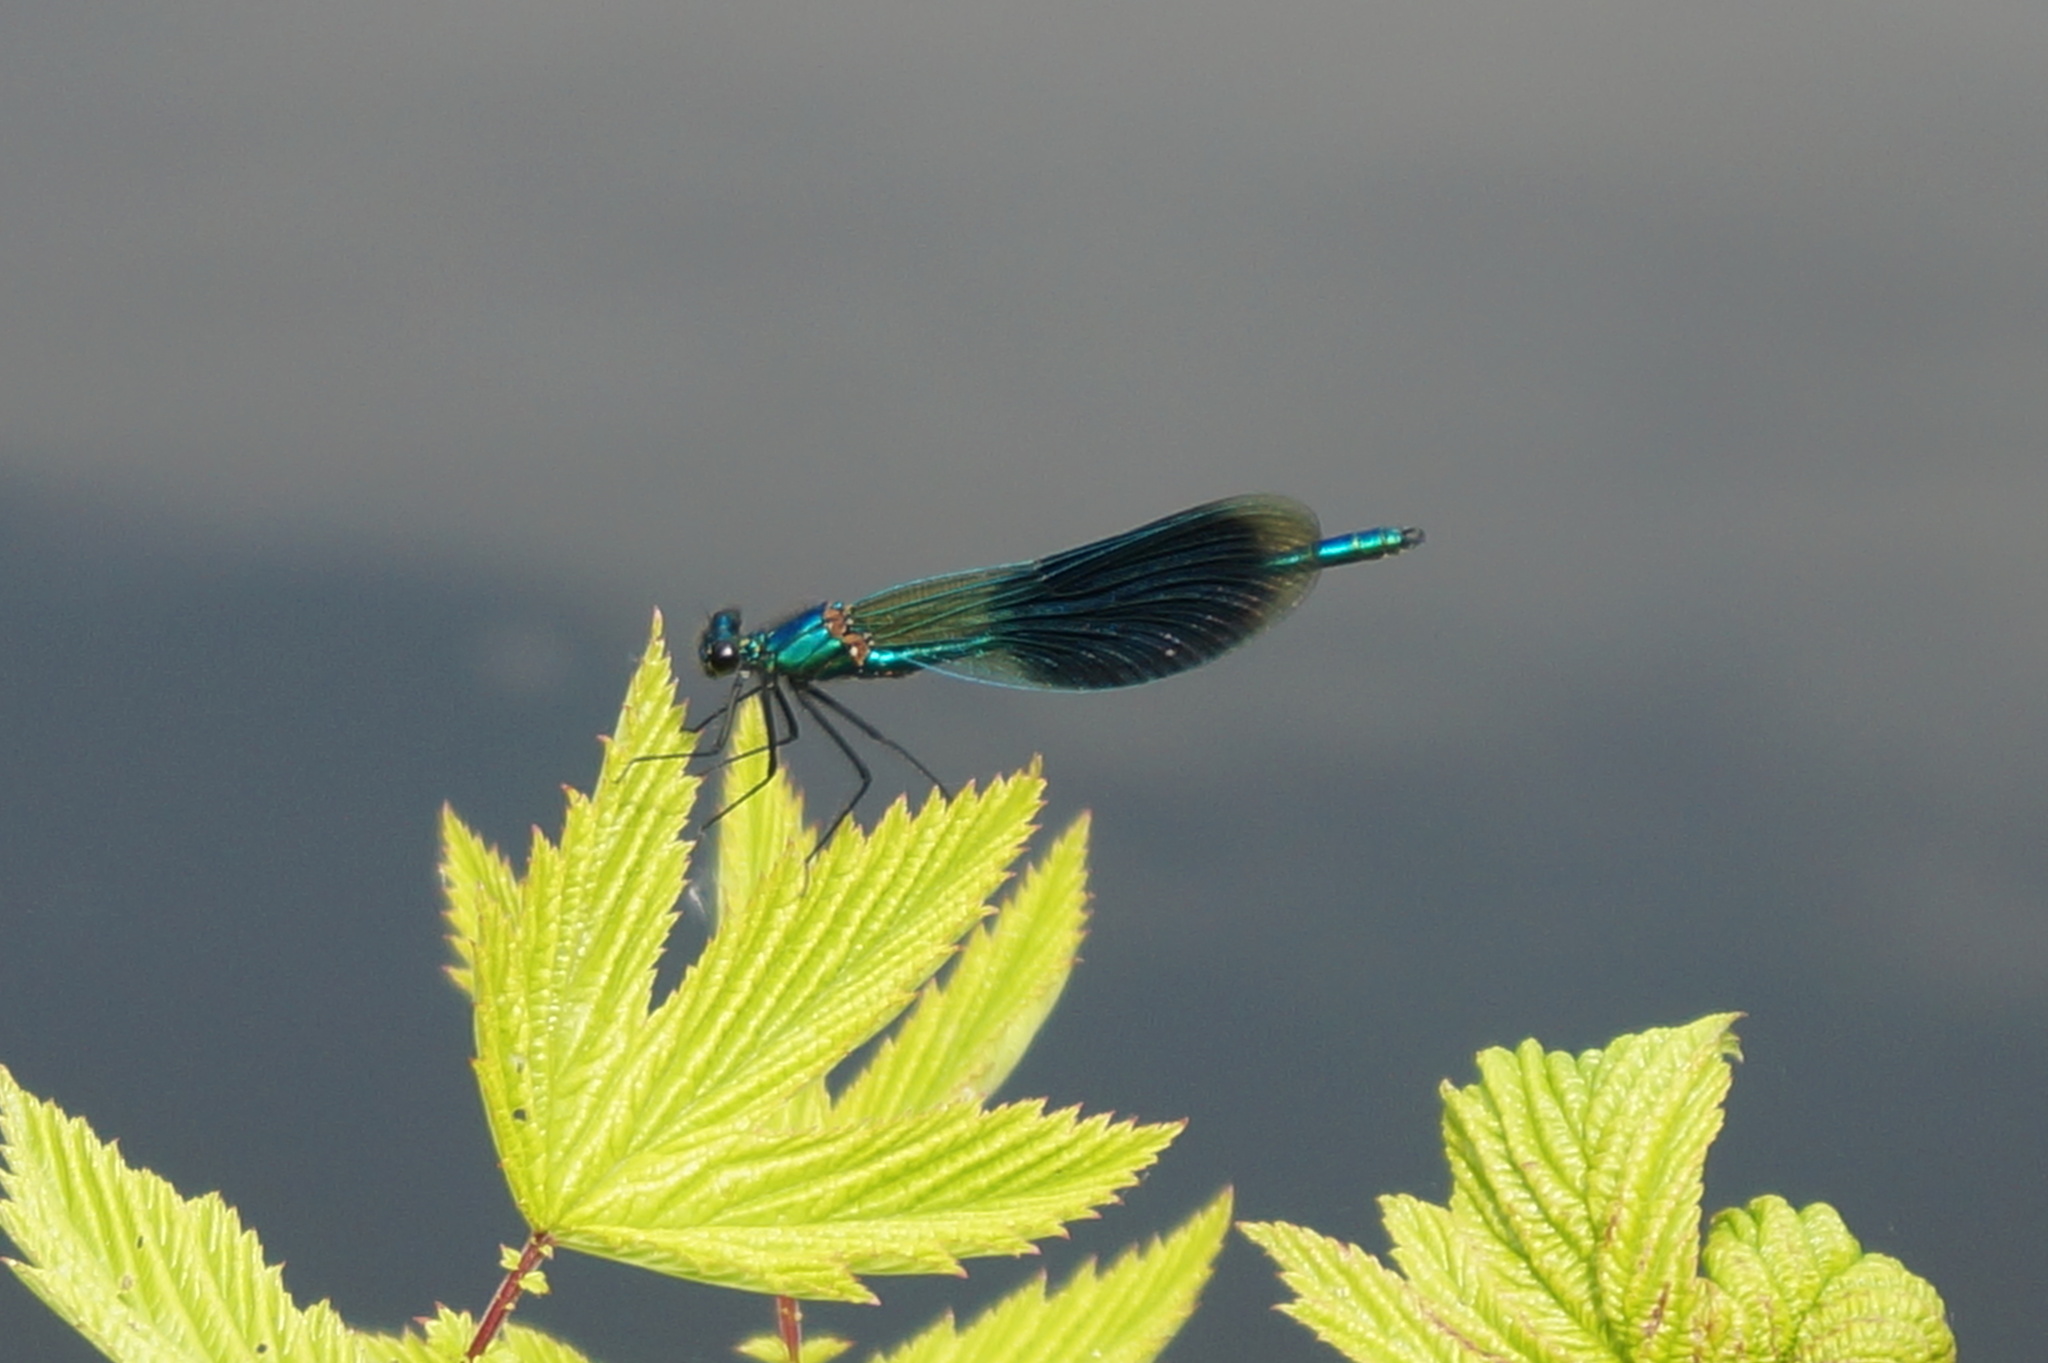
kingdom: Animalia
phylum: Arthropoda
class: Insecta
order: Odonata
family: Calopterygidae
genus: Calopteryx
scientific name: Calopteryx splendens
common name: Banded demoiselle
